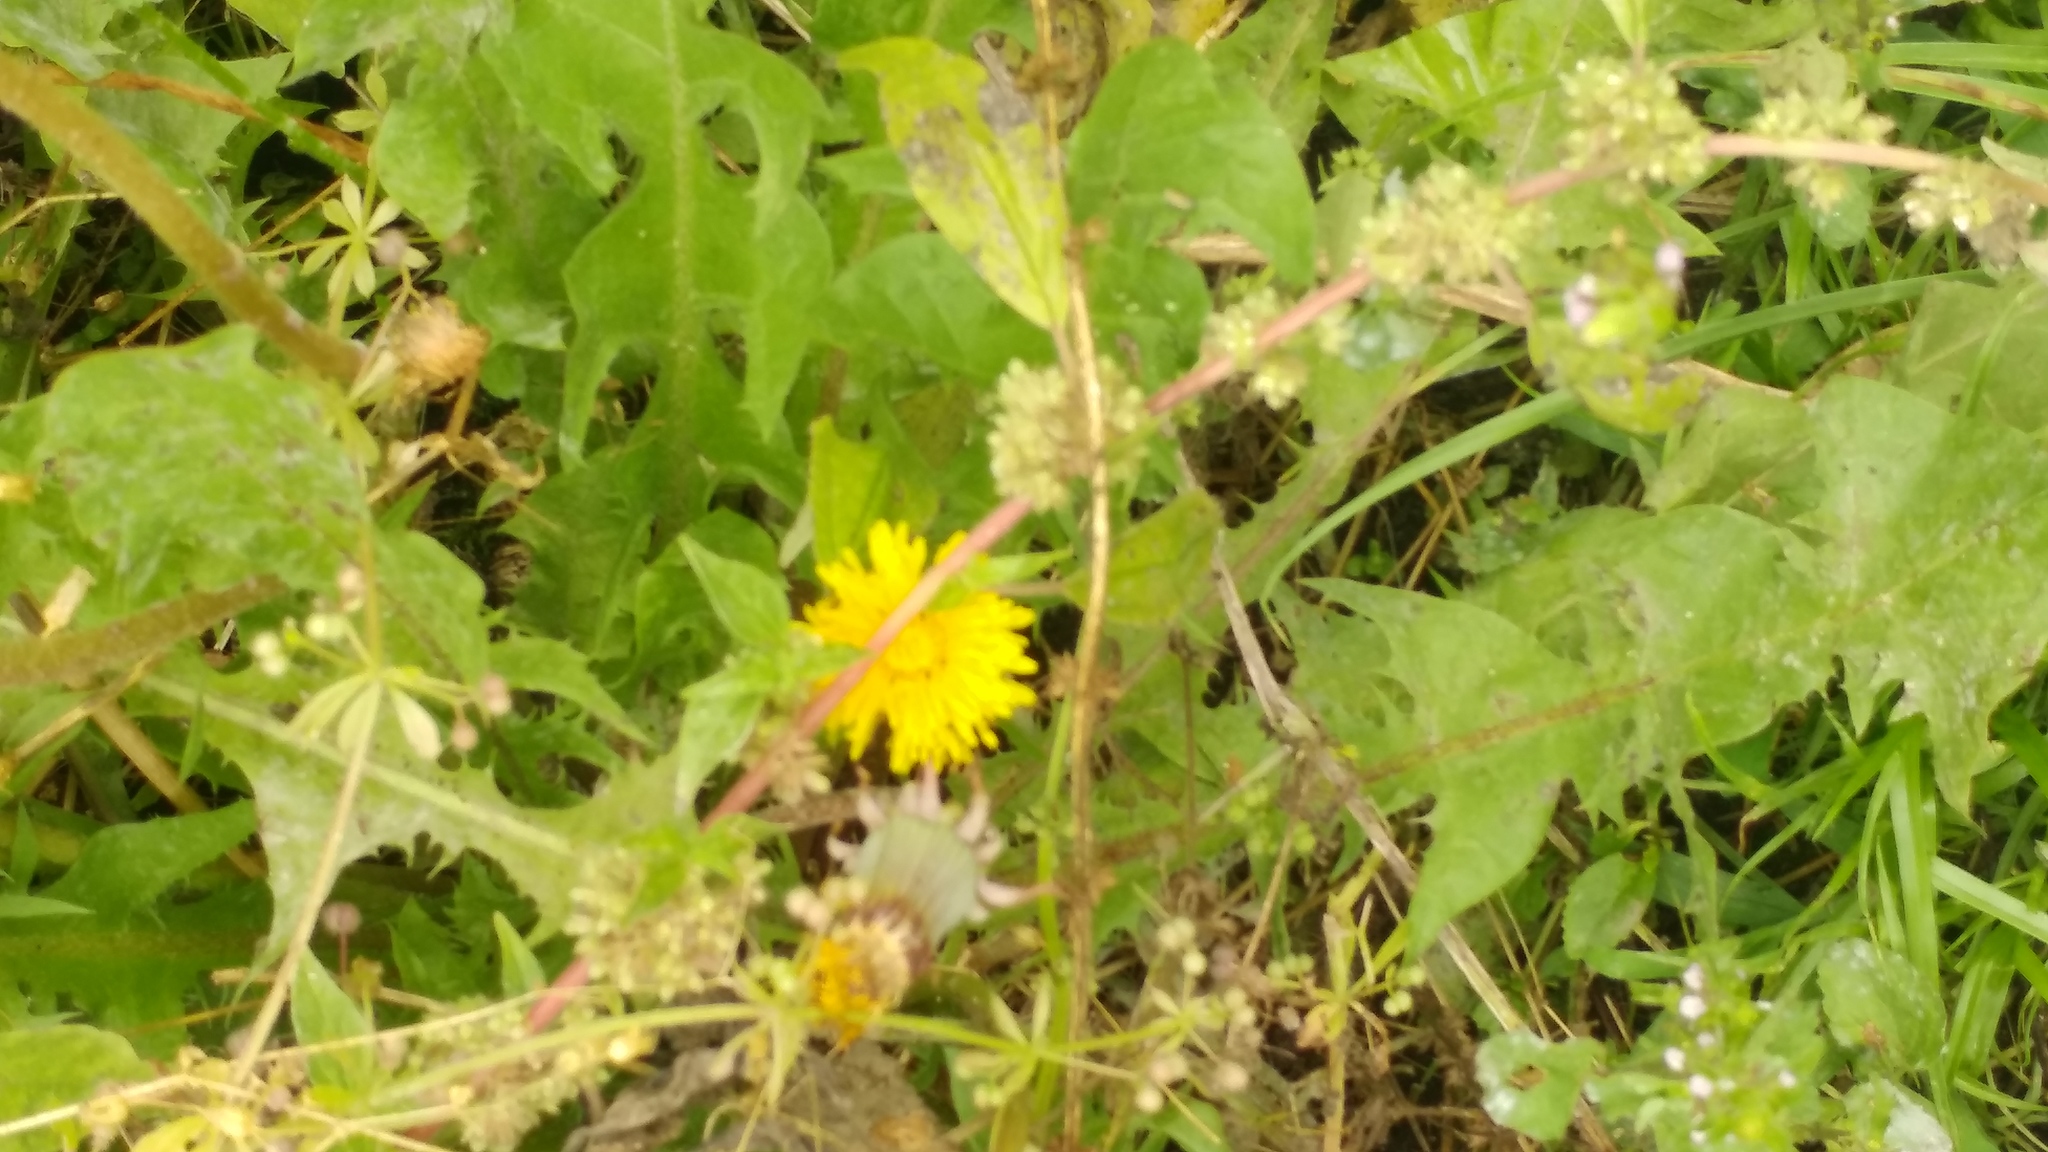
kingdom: Plantae
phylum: Tracheophyta
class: Magnoliopsida
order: Asterales
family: Asteraceae
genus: Taraxacum
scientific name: Taraxacum officinale
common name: Common dandelion
